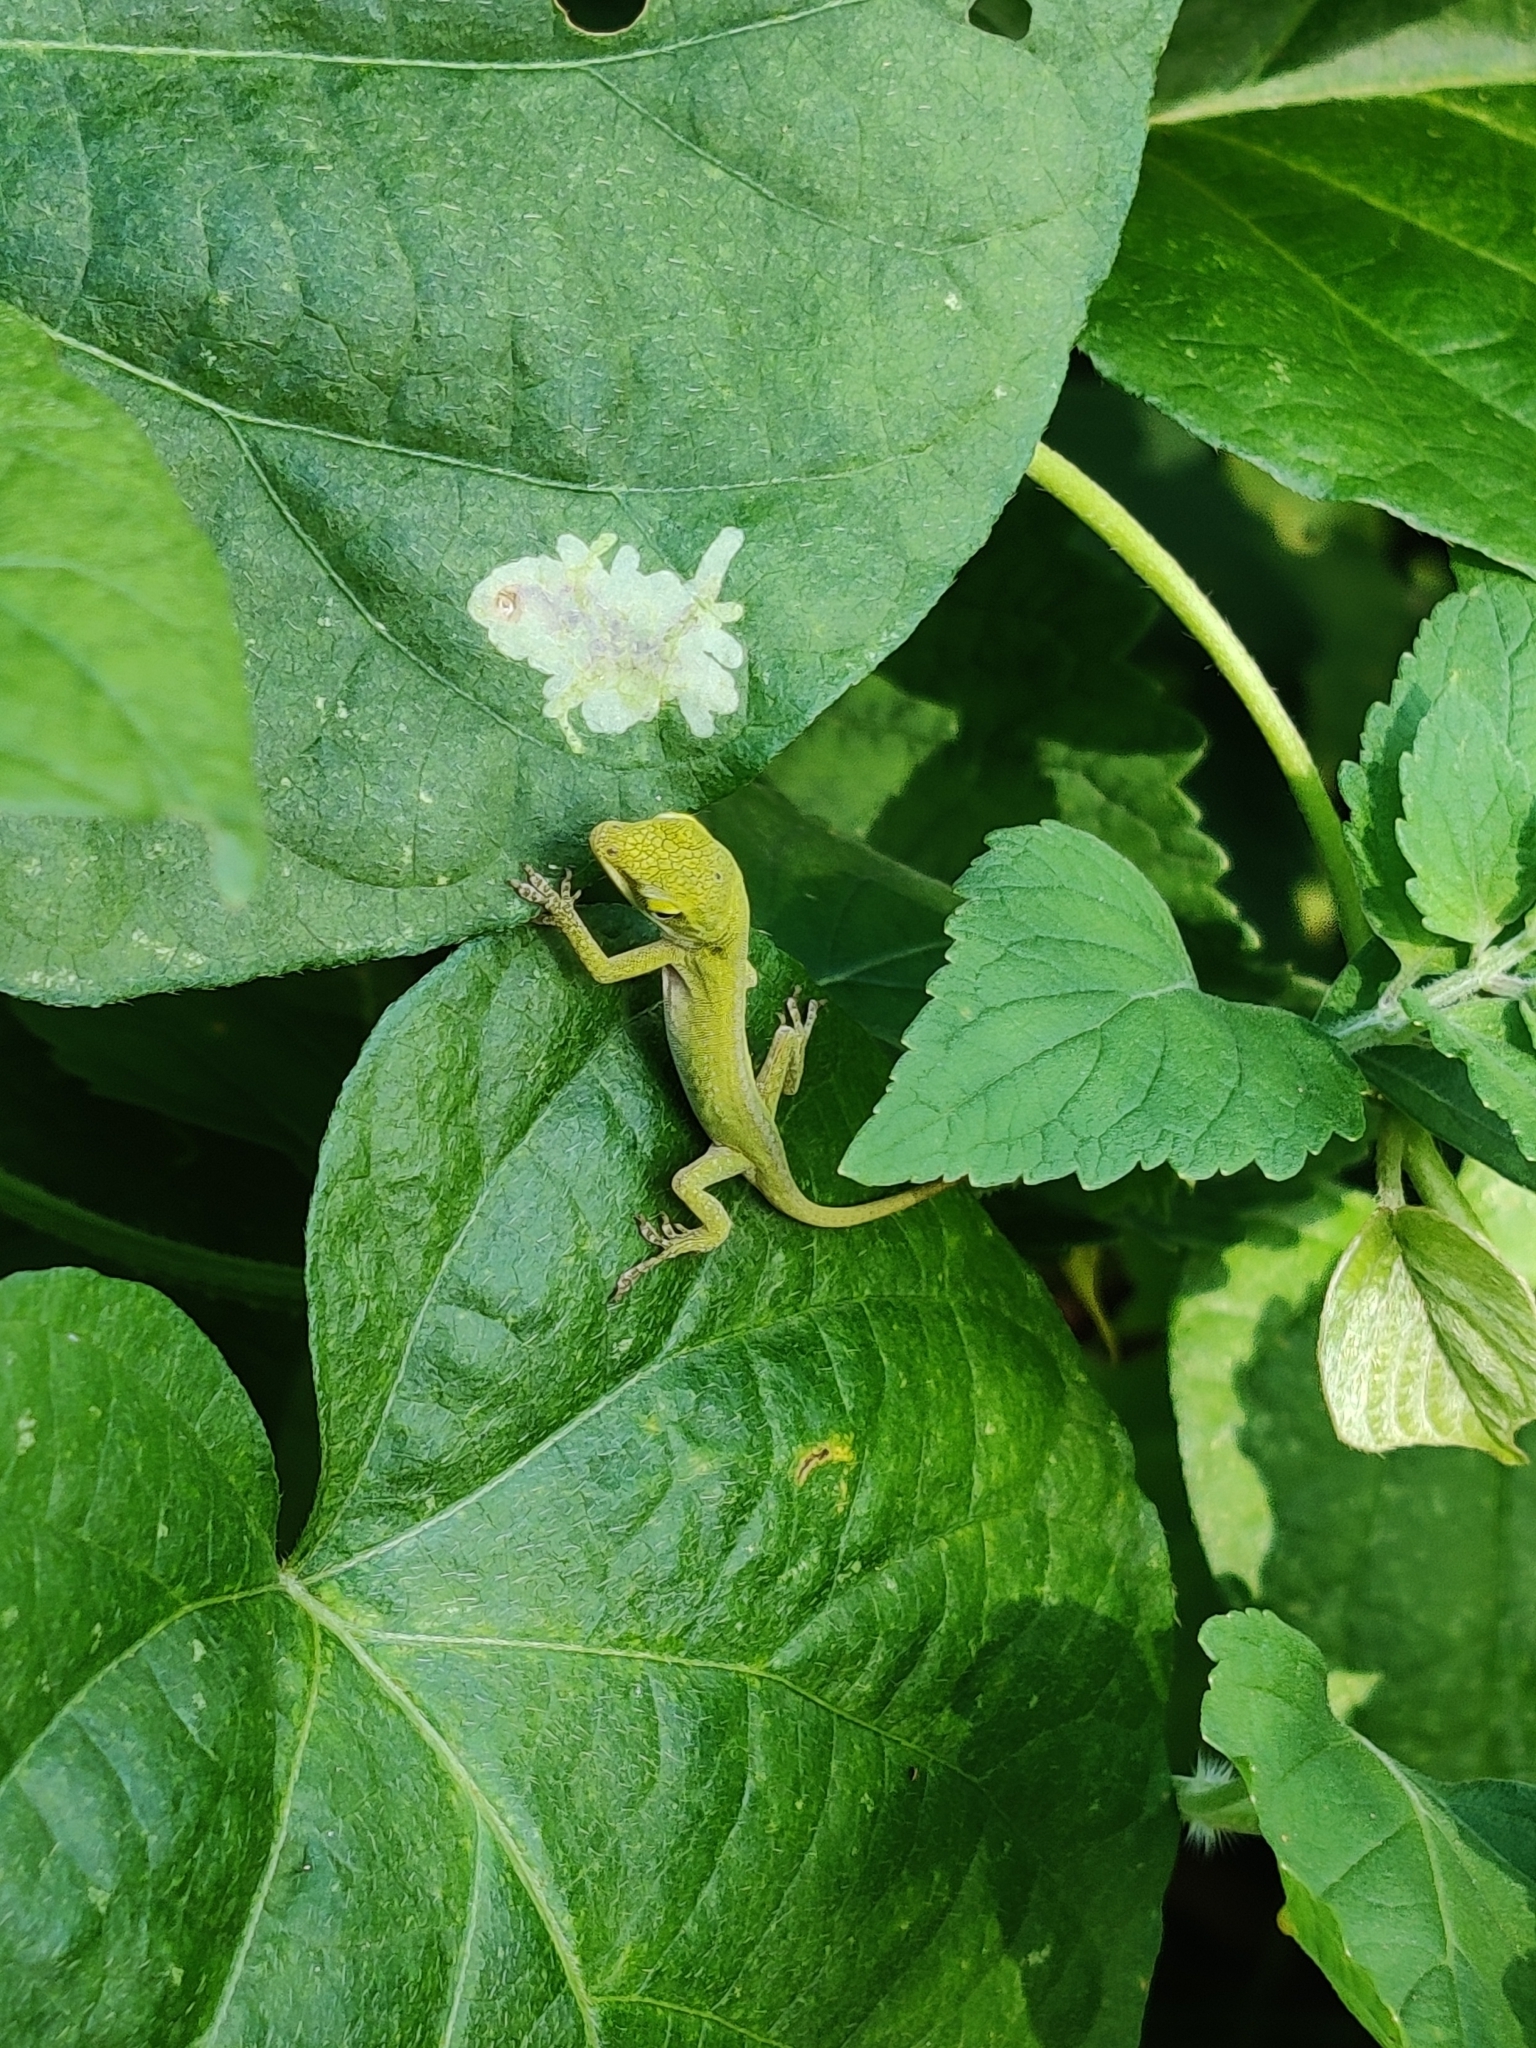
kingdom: Animalia
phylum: Chordata
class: Squamata
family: Dactyloidae
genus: Anolis
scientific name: Anolis carolinensis
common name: Green anole
